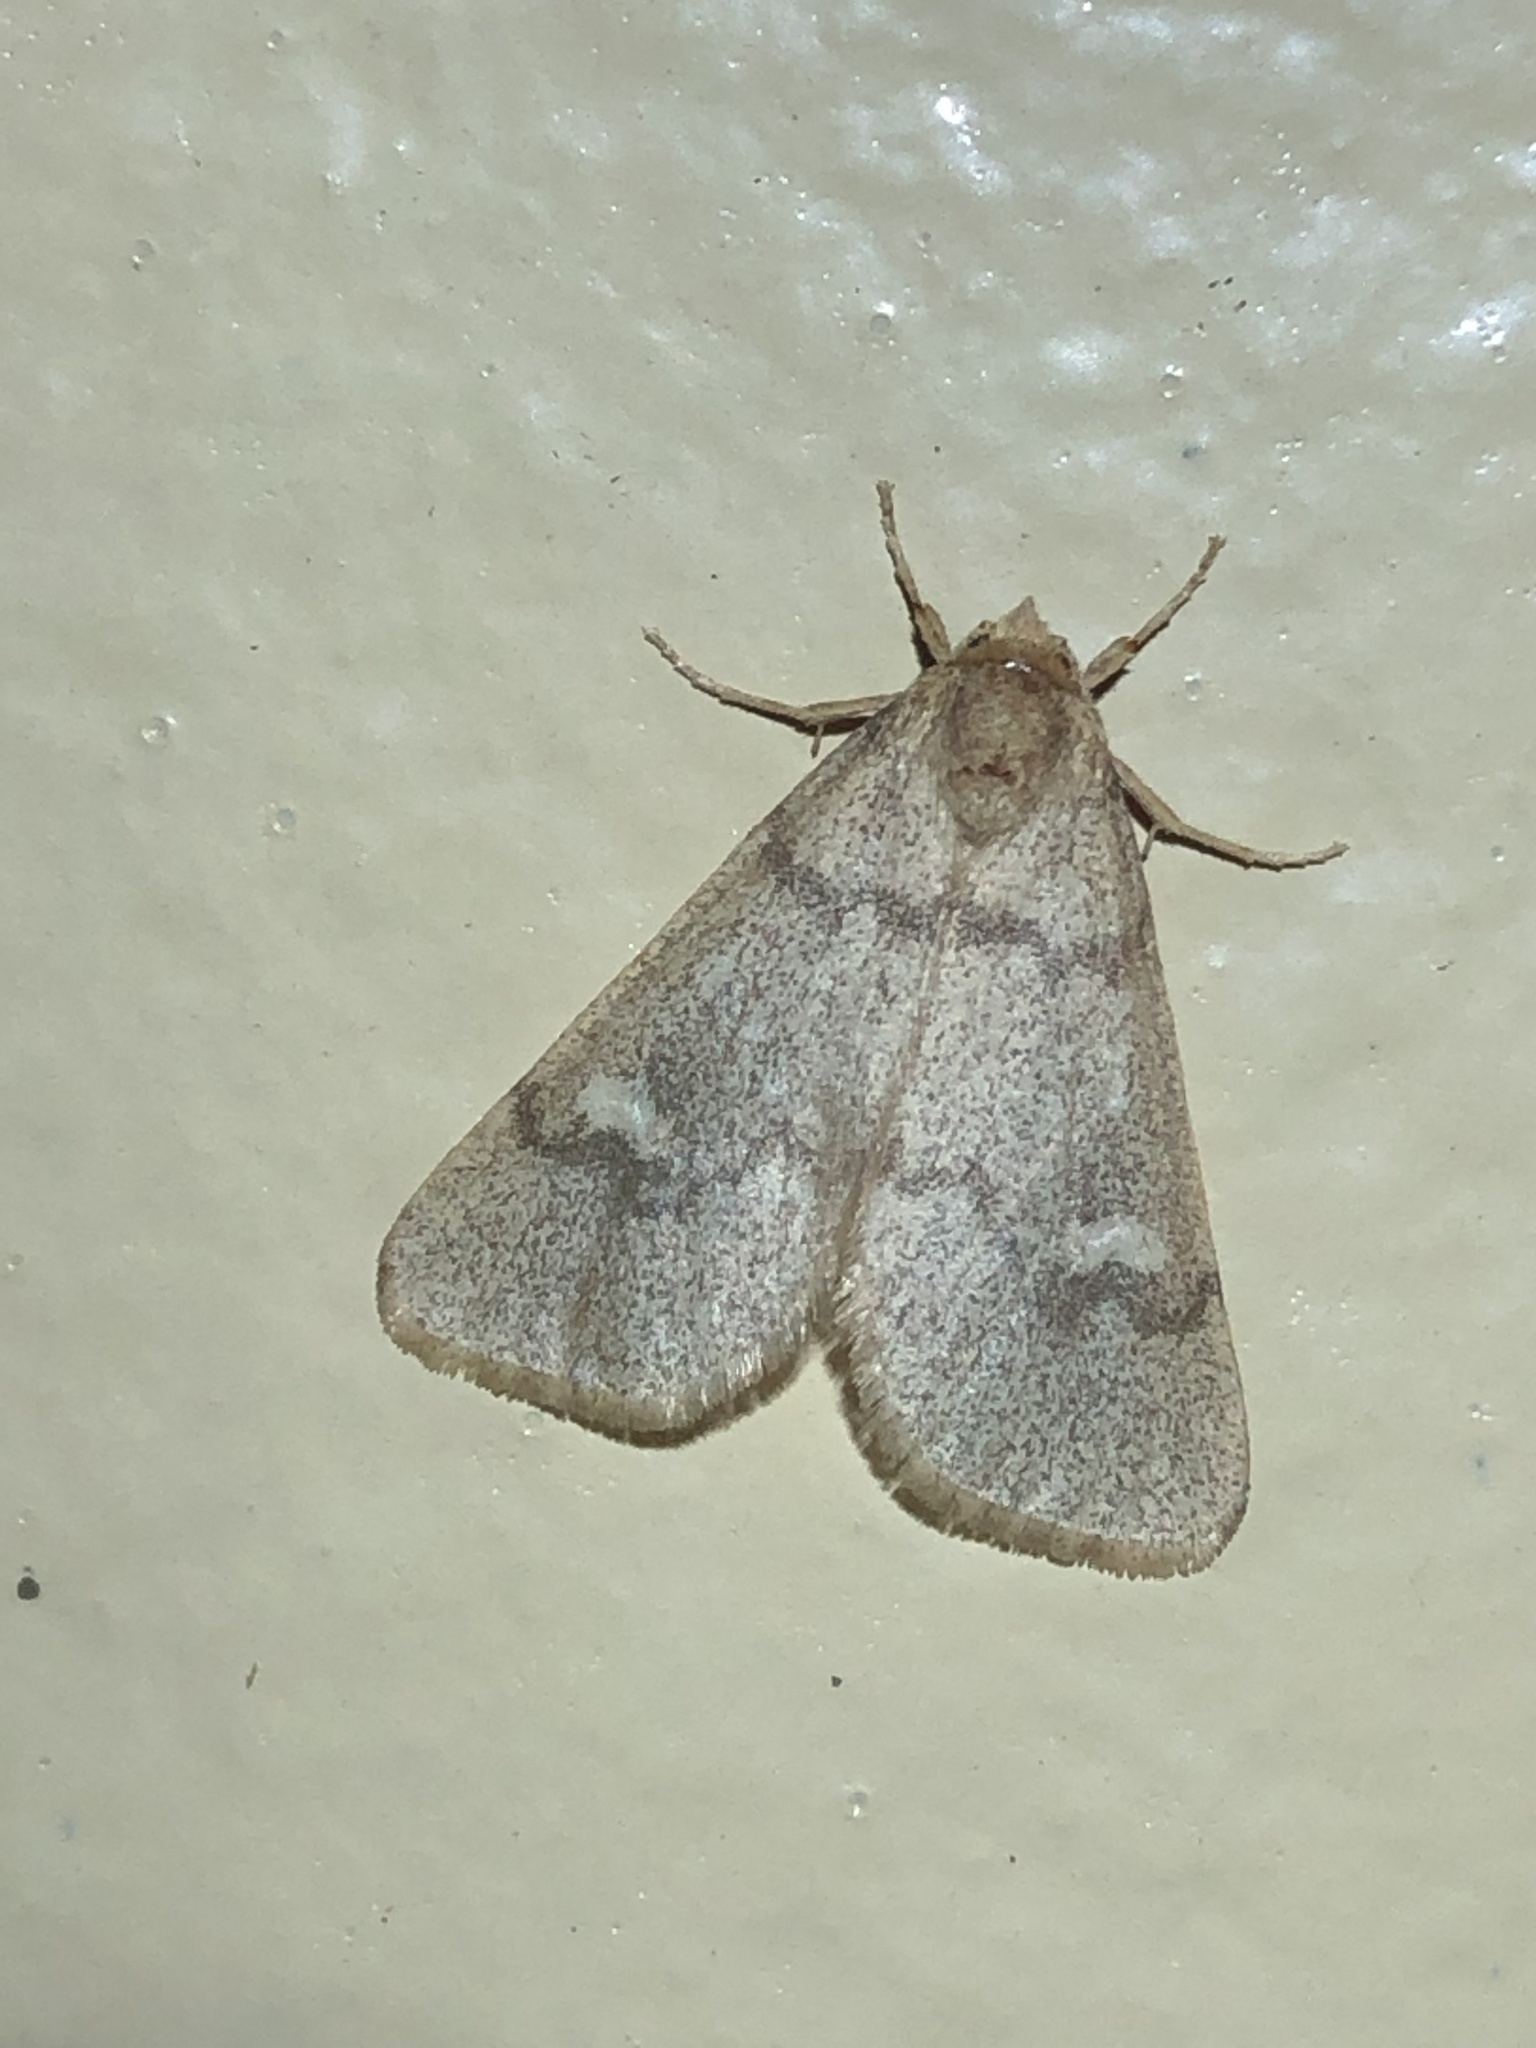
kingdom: Animalia
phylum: Arthropoda
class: Insecta
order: Lepidoptera
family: Noctuidae
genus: Narthecophora
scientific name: Narthecophora pulverea
